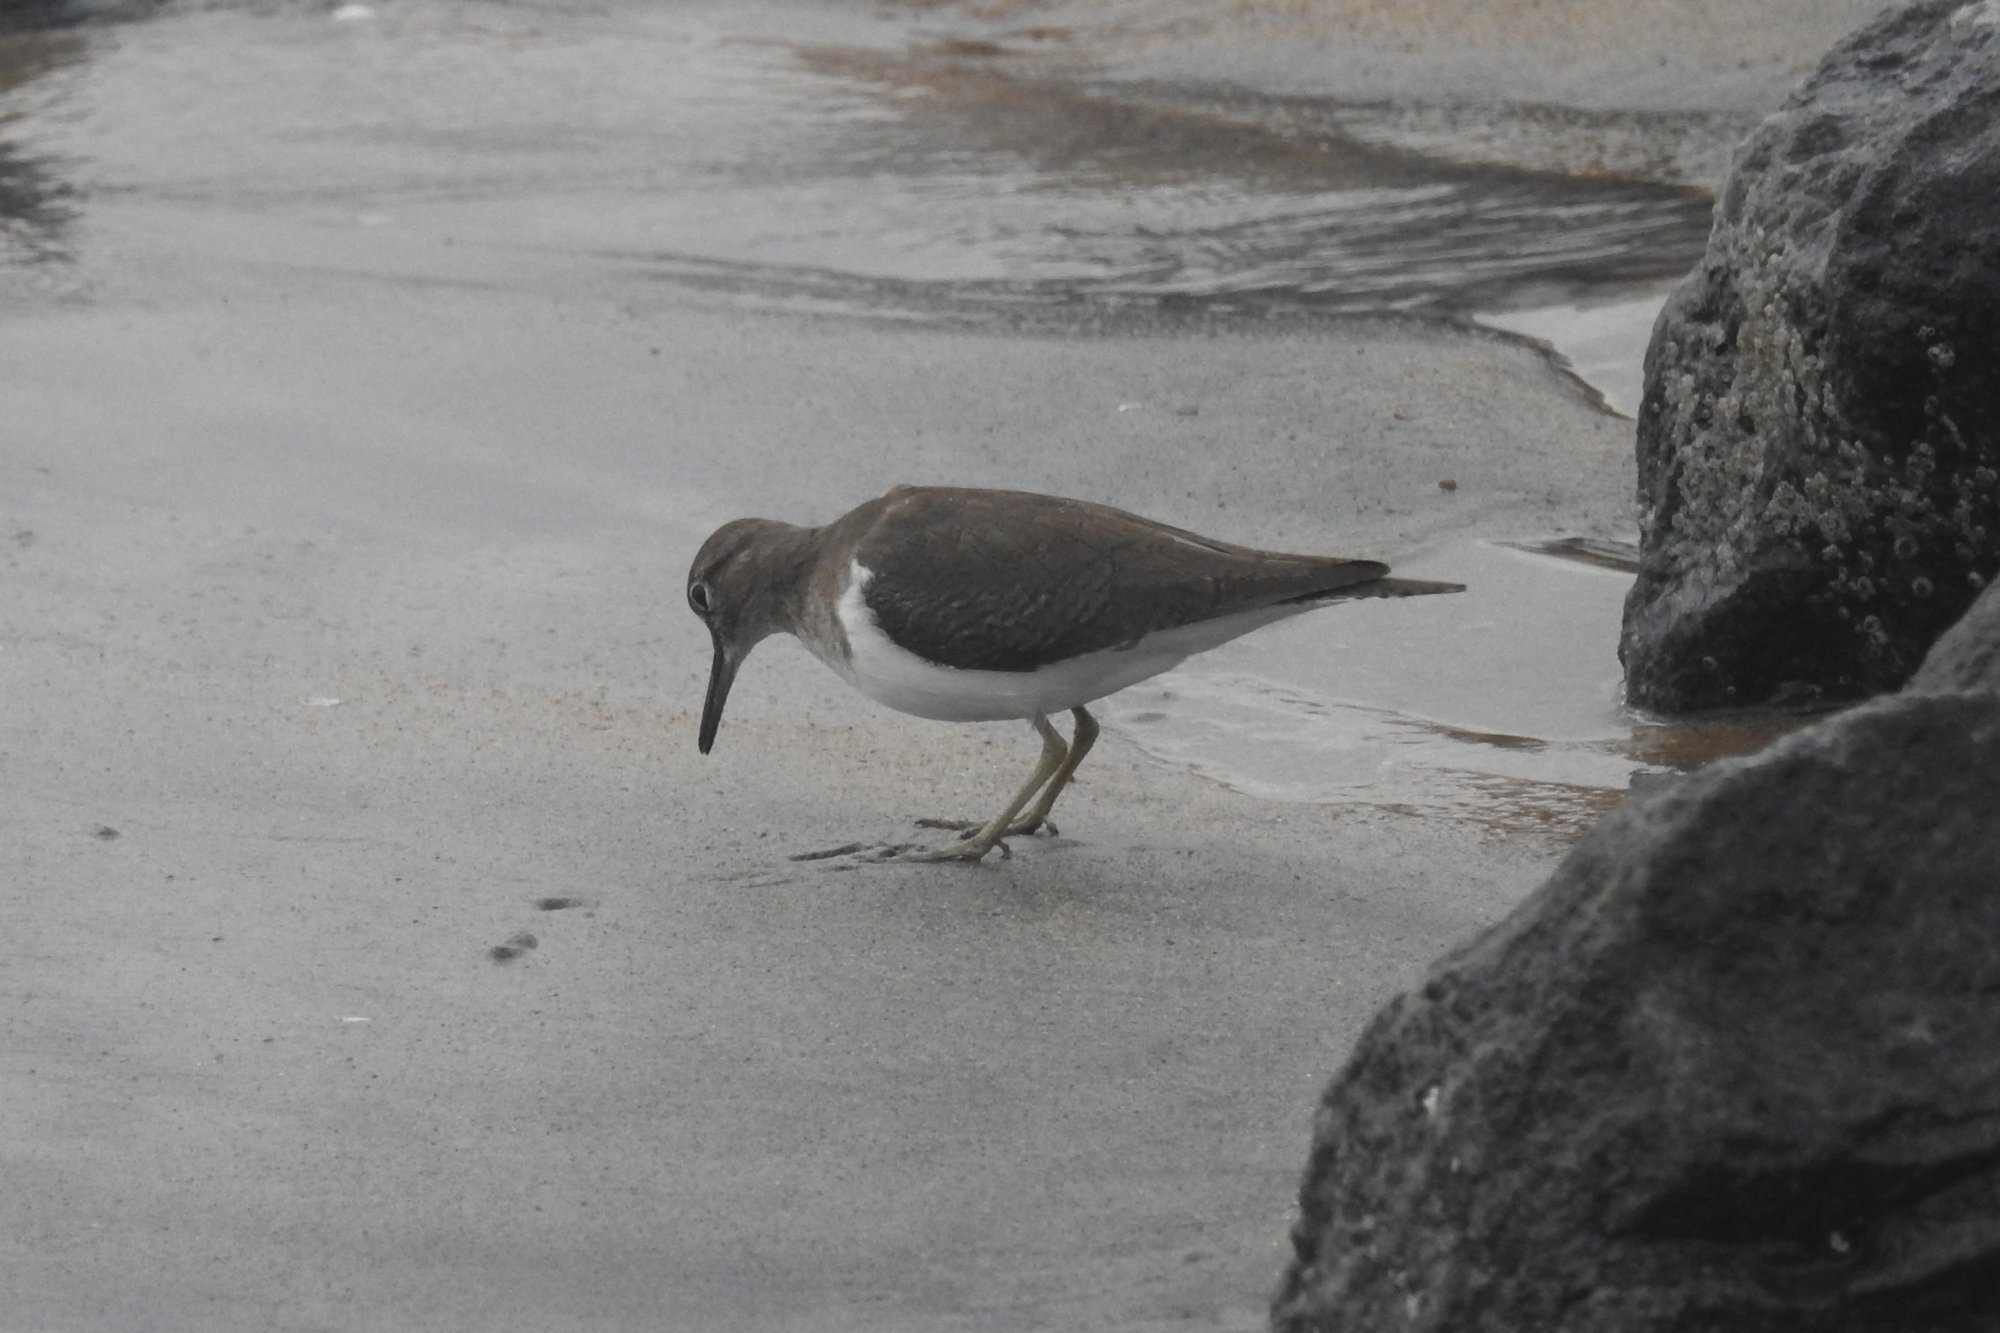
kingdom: Animalia
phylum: Chordata
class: Aves
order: Charadriiformes
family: Scolopacidae
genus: Actitis
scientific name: Actitis hypoleucos
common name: Common sandpiper
